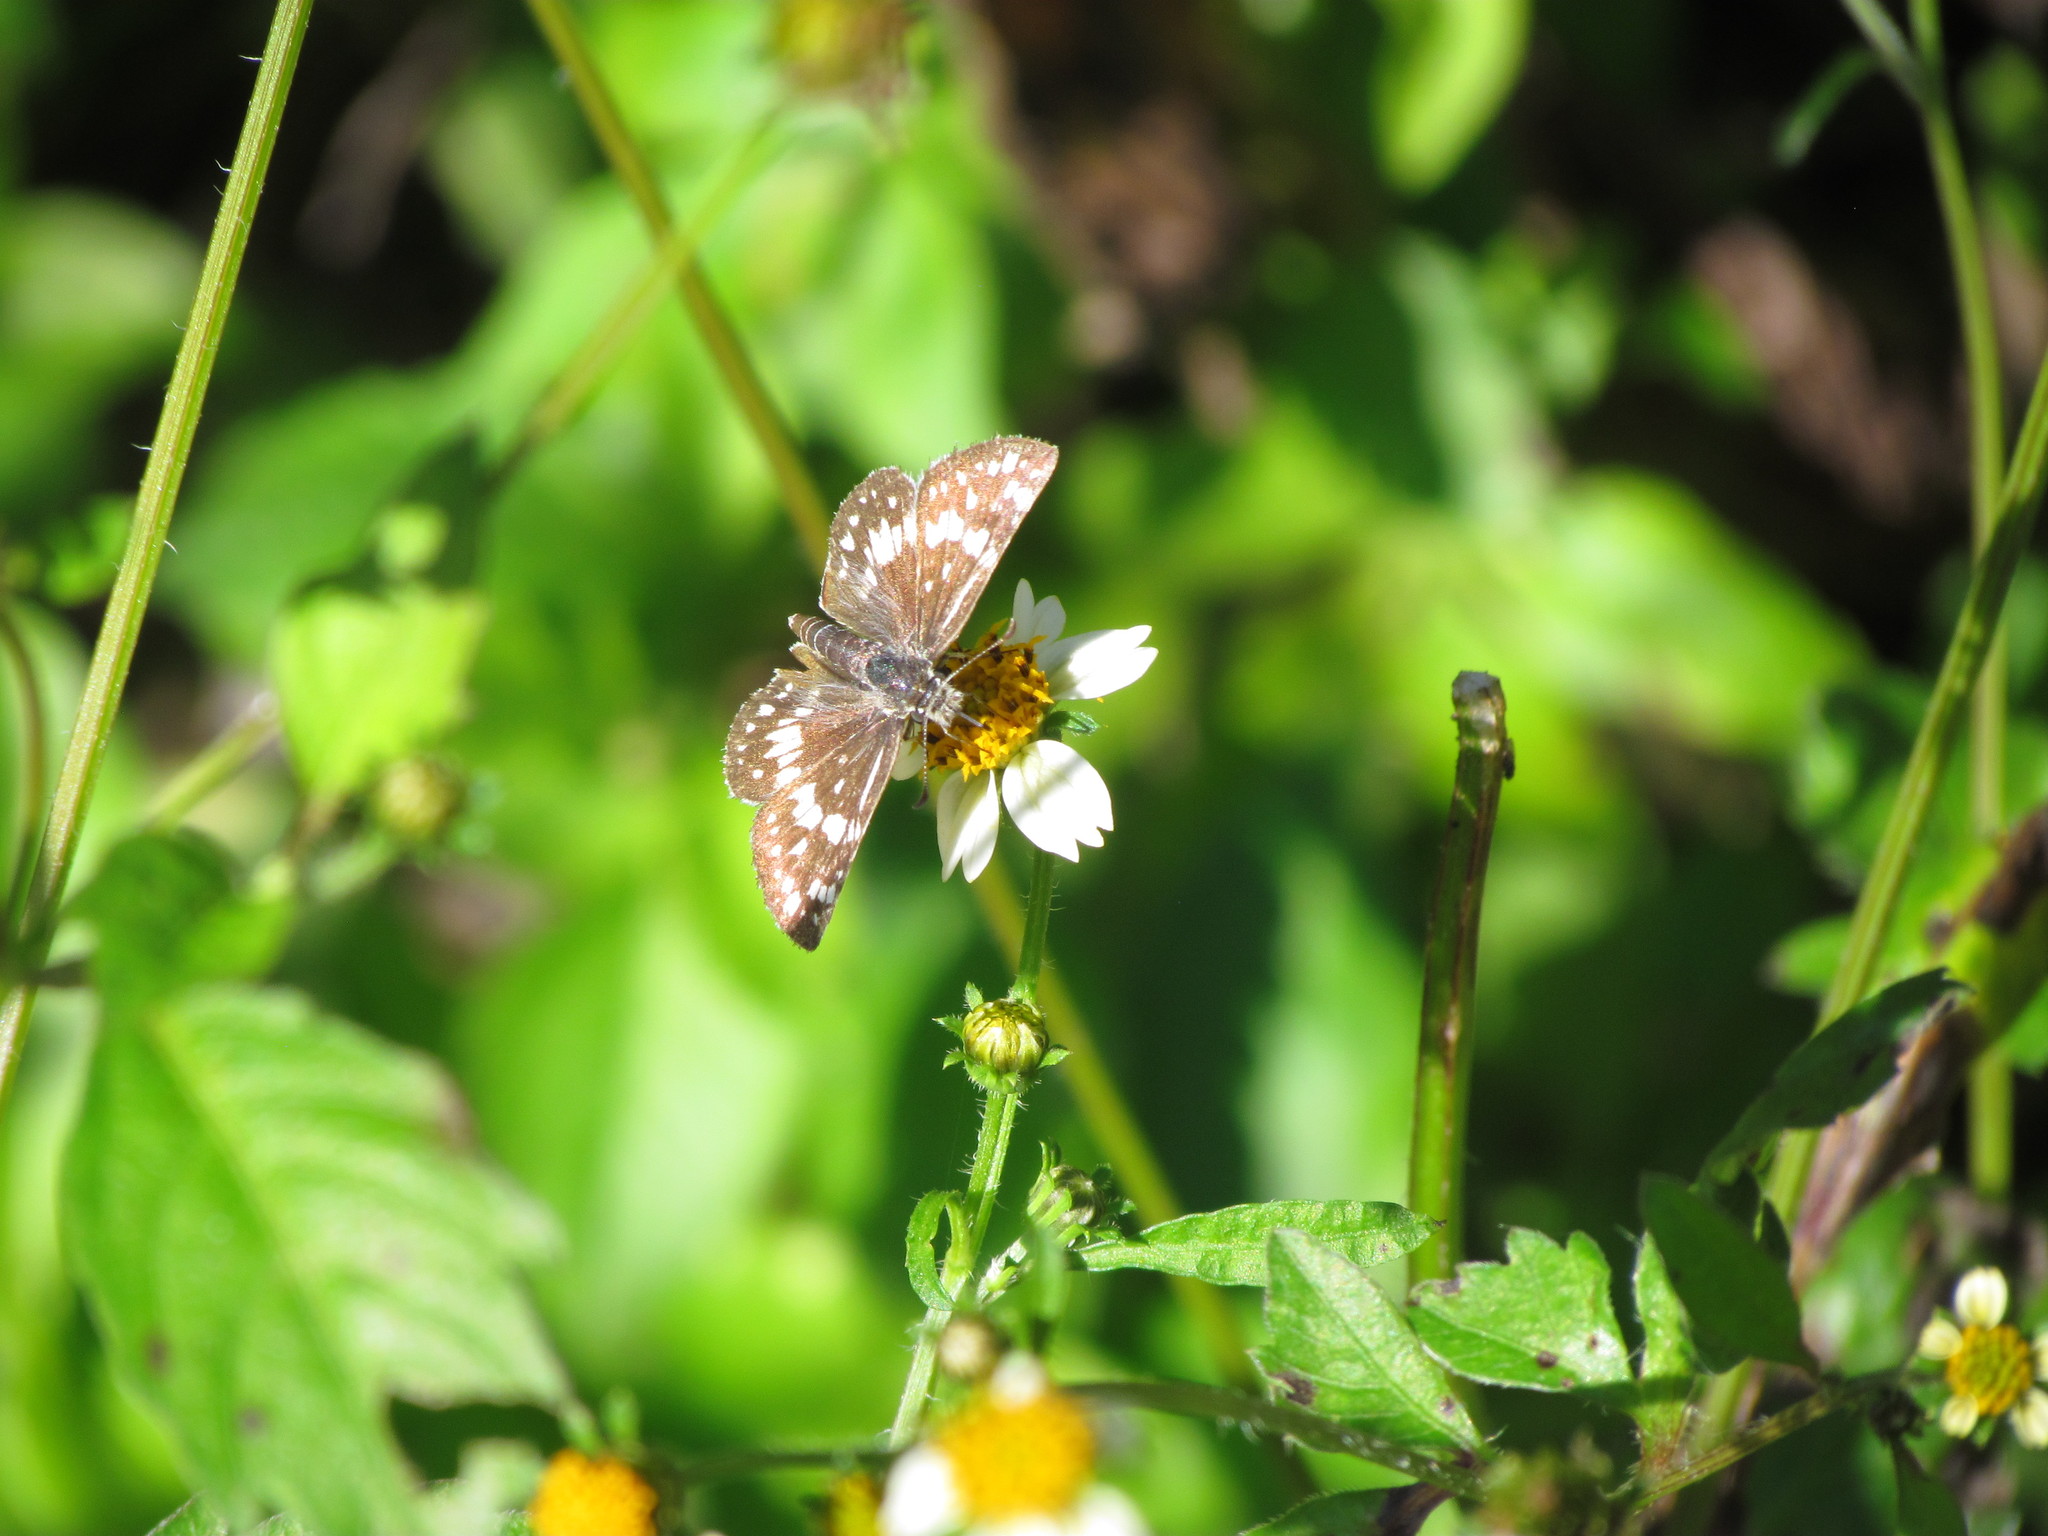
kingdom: Animalia
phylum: Arthropoda
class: Insecta
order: Lepidoptera
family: Hesperiidae
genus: Burnsius
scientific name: Burnsius orcynoides
